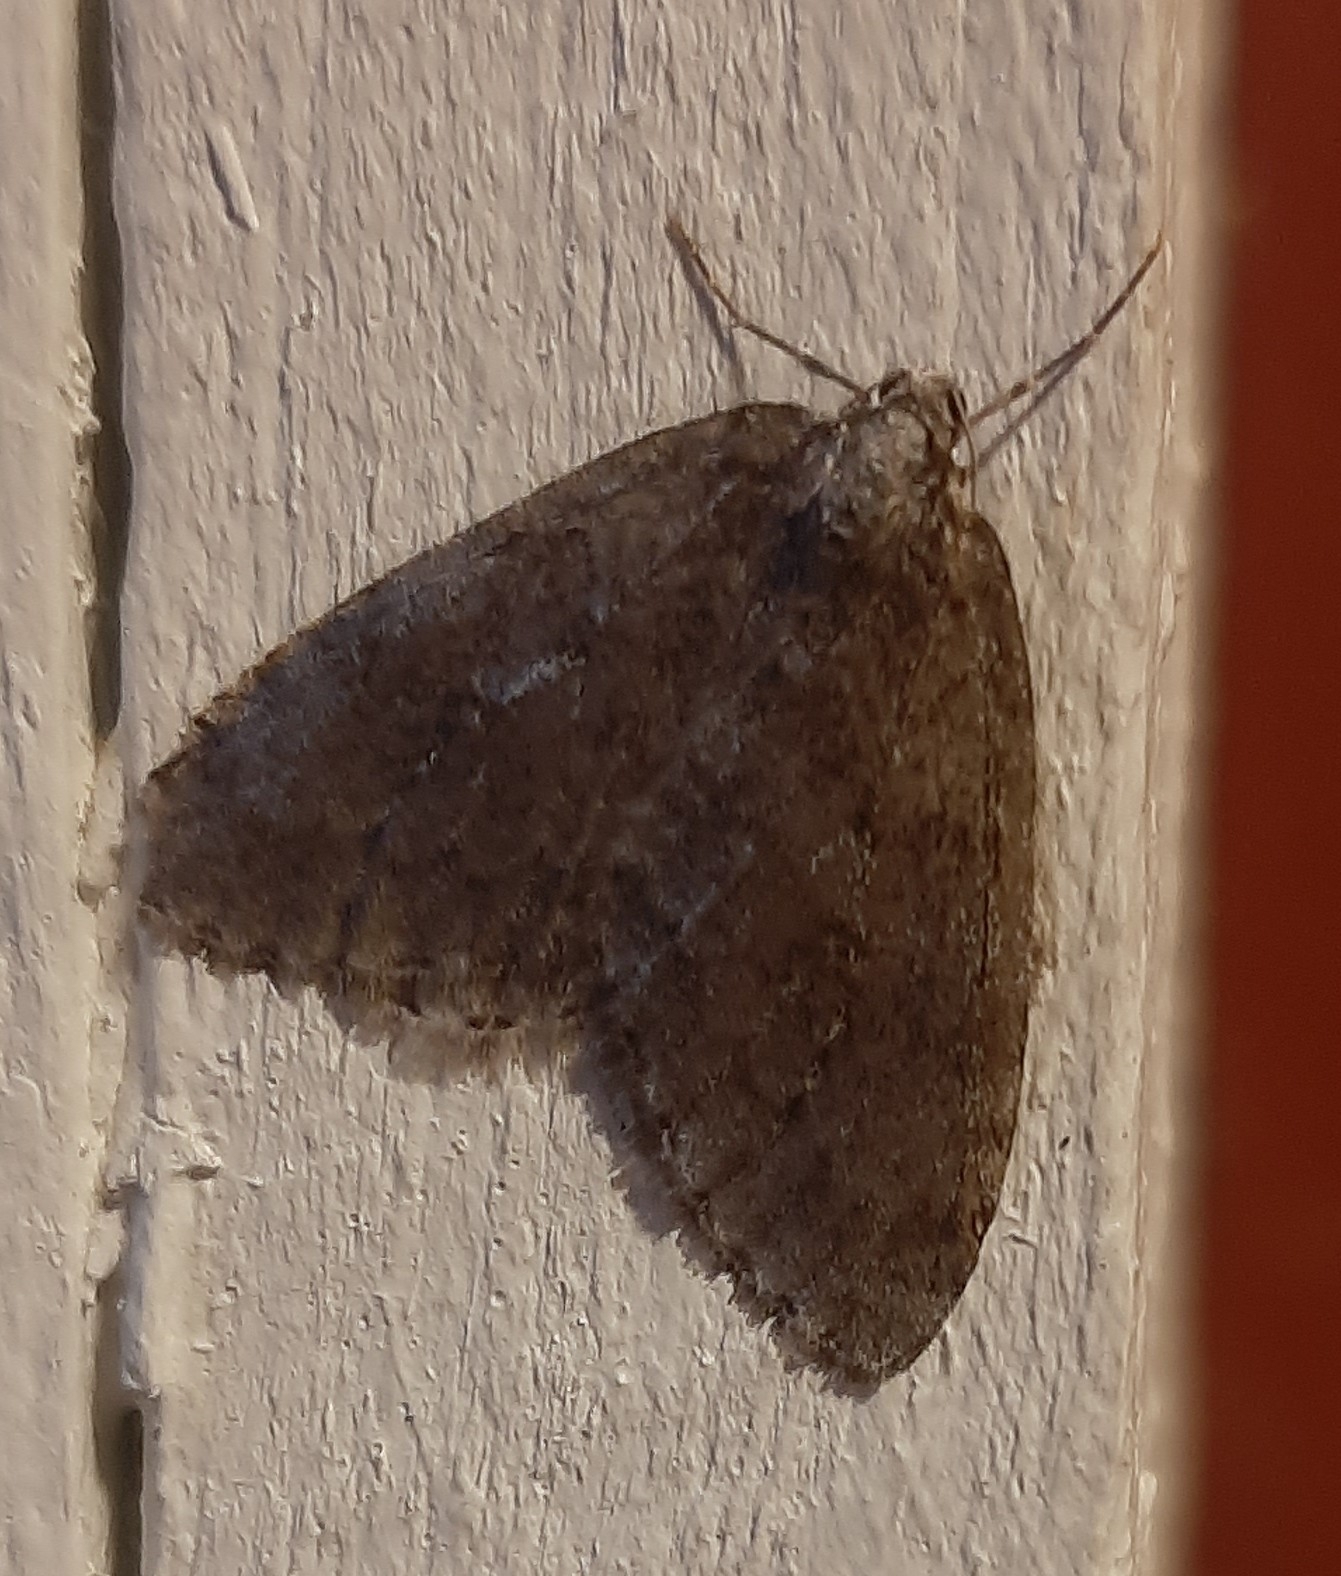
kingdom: Animalia
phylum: Arthropoda
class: Insecta
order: Lepidoptera
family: Geometridae
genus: Epirrita
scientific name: Epirrita autumnata
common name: Autumnal moth
